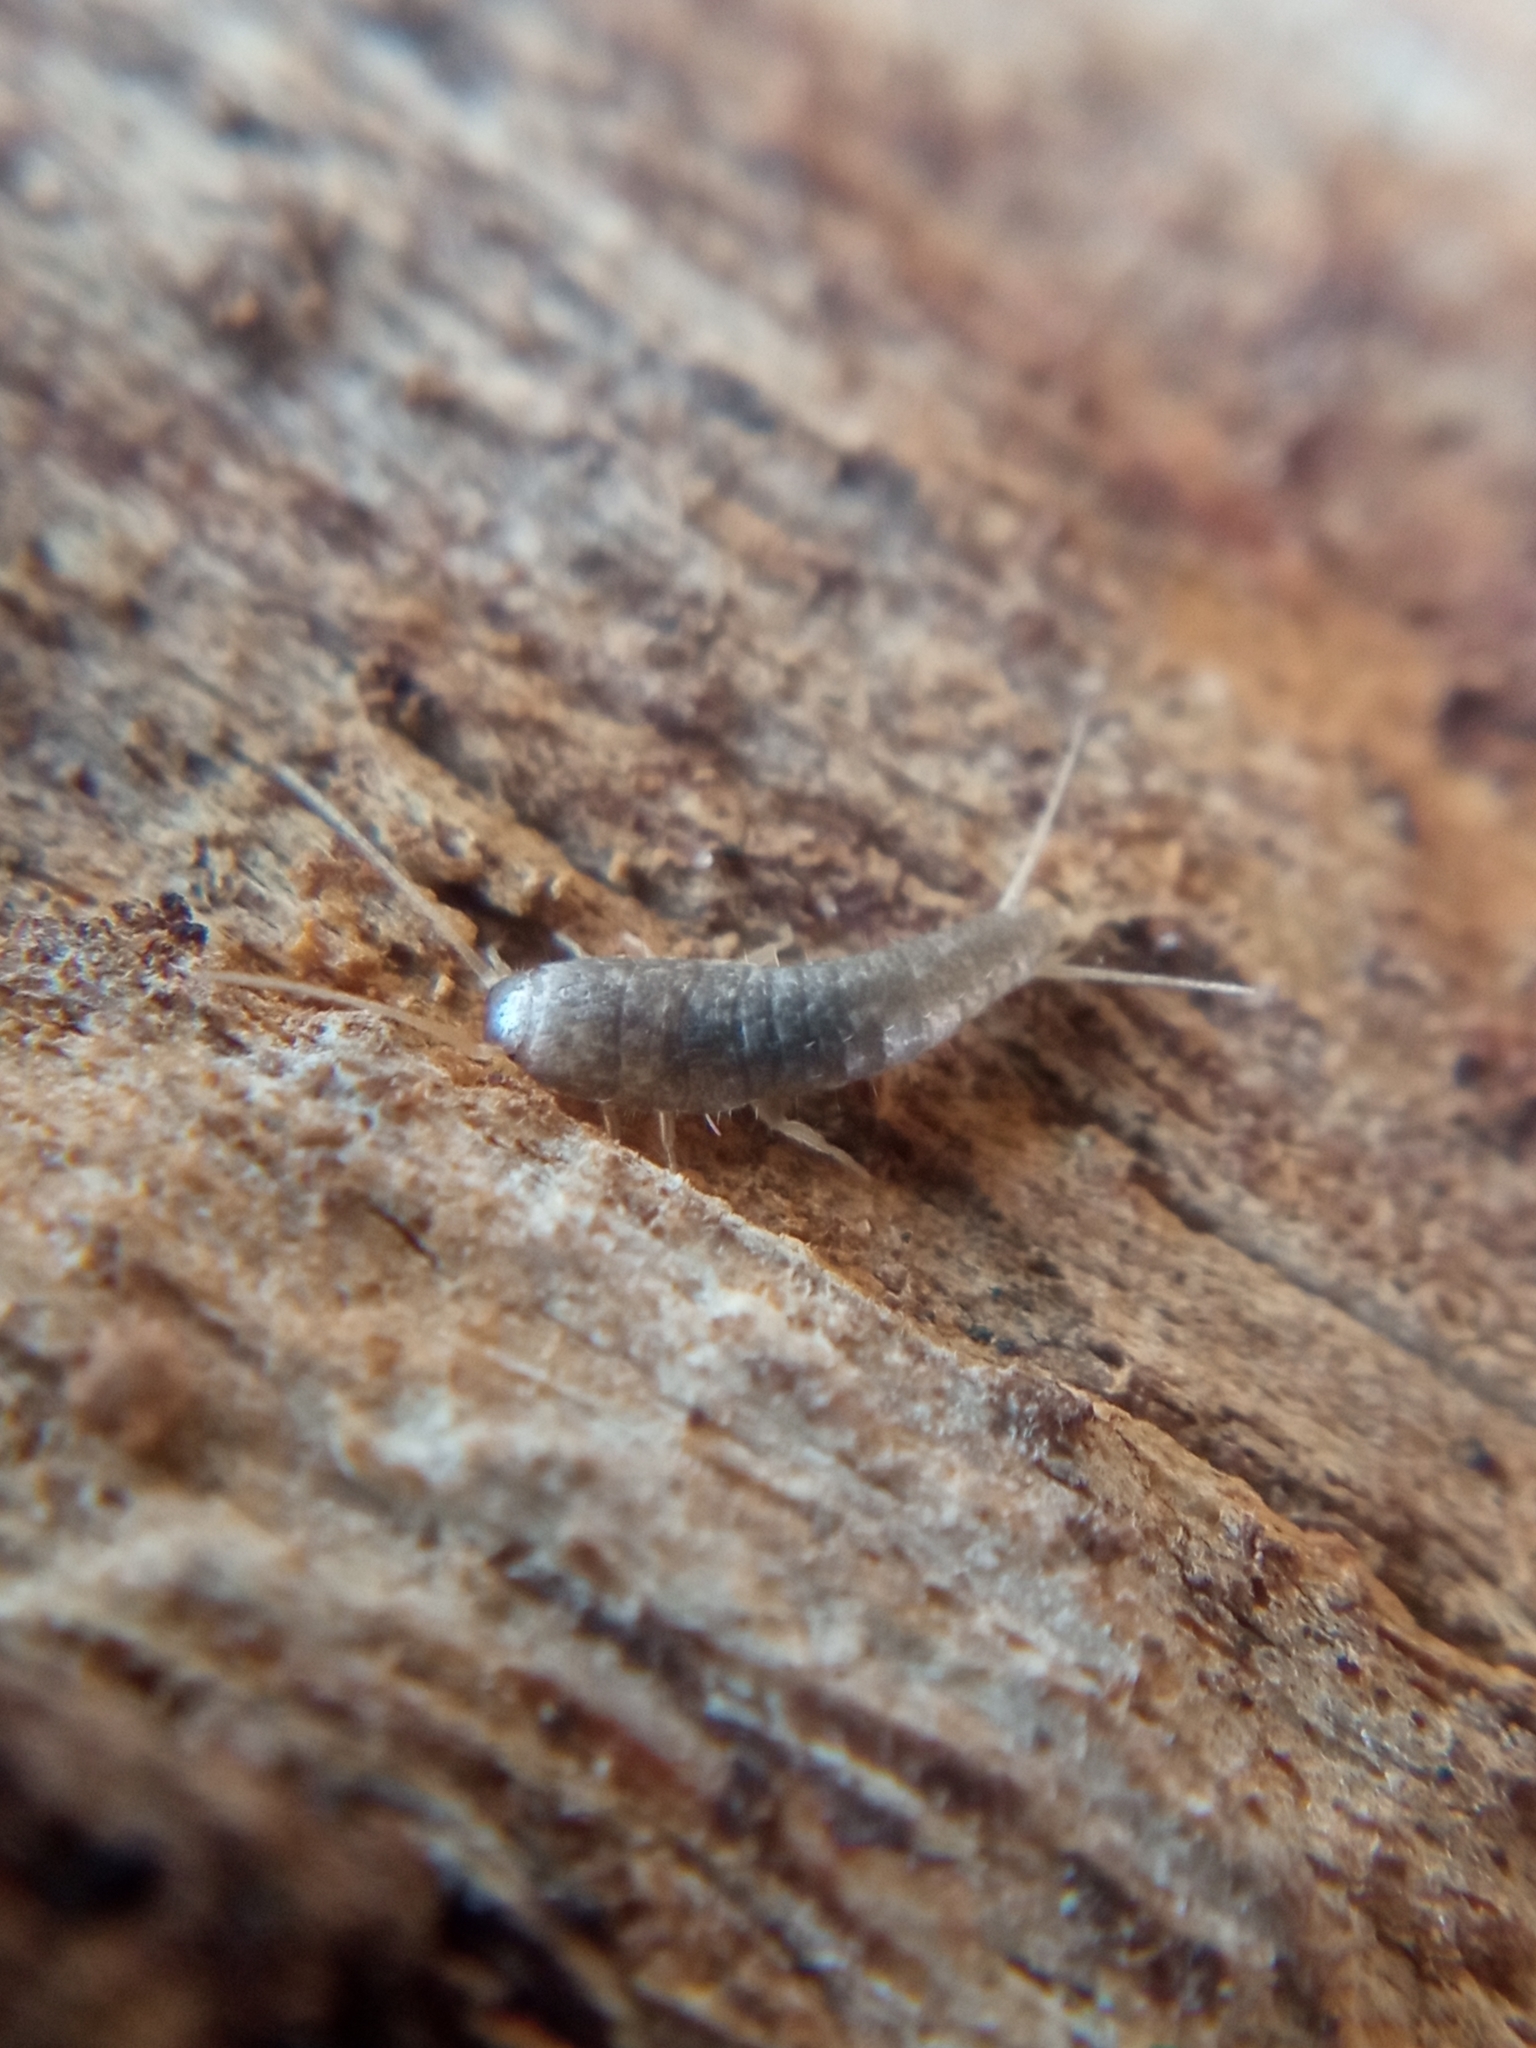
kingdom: Animalia
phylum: Arthropoda
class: Insecta
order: Zygentoma
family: Lepismatidae
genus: Lepisma
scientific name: Lepisma saccharinum
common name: Silverfish
